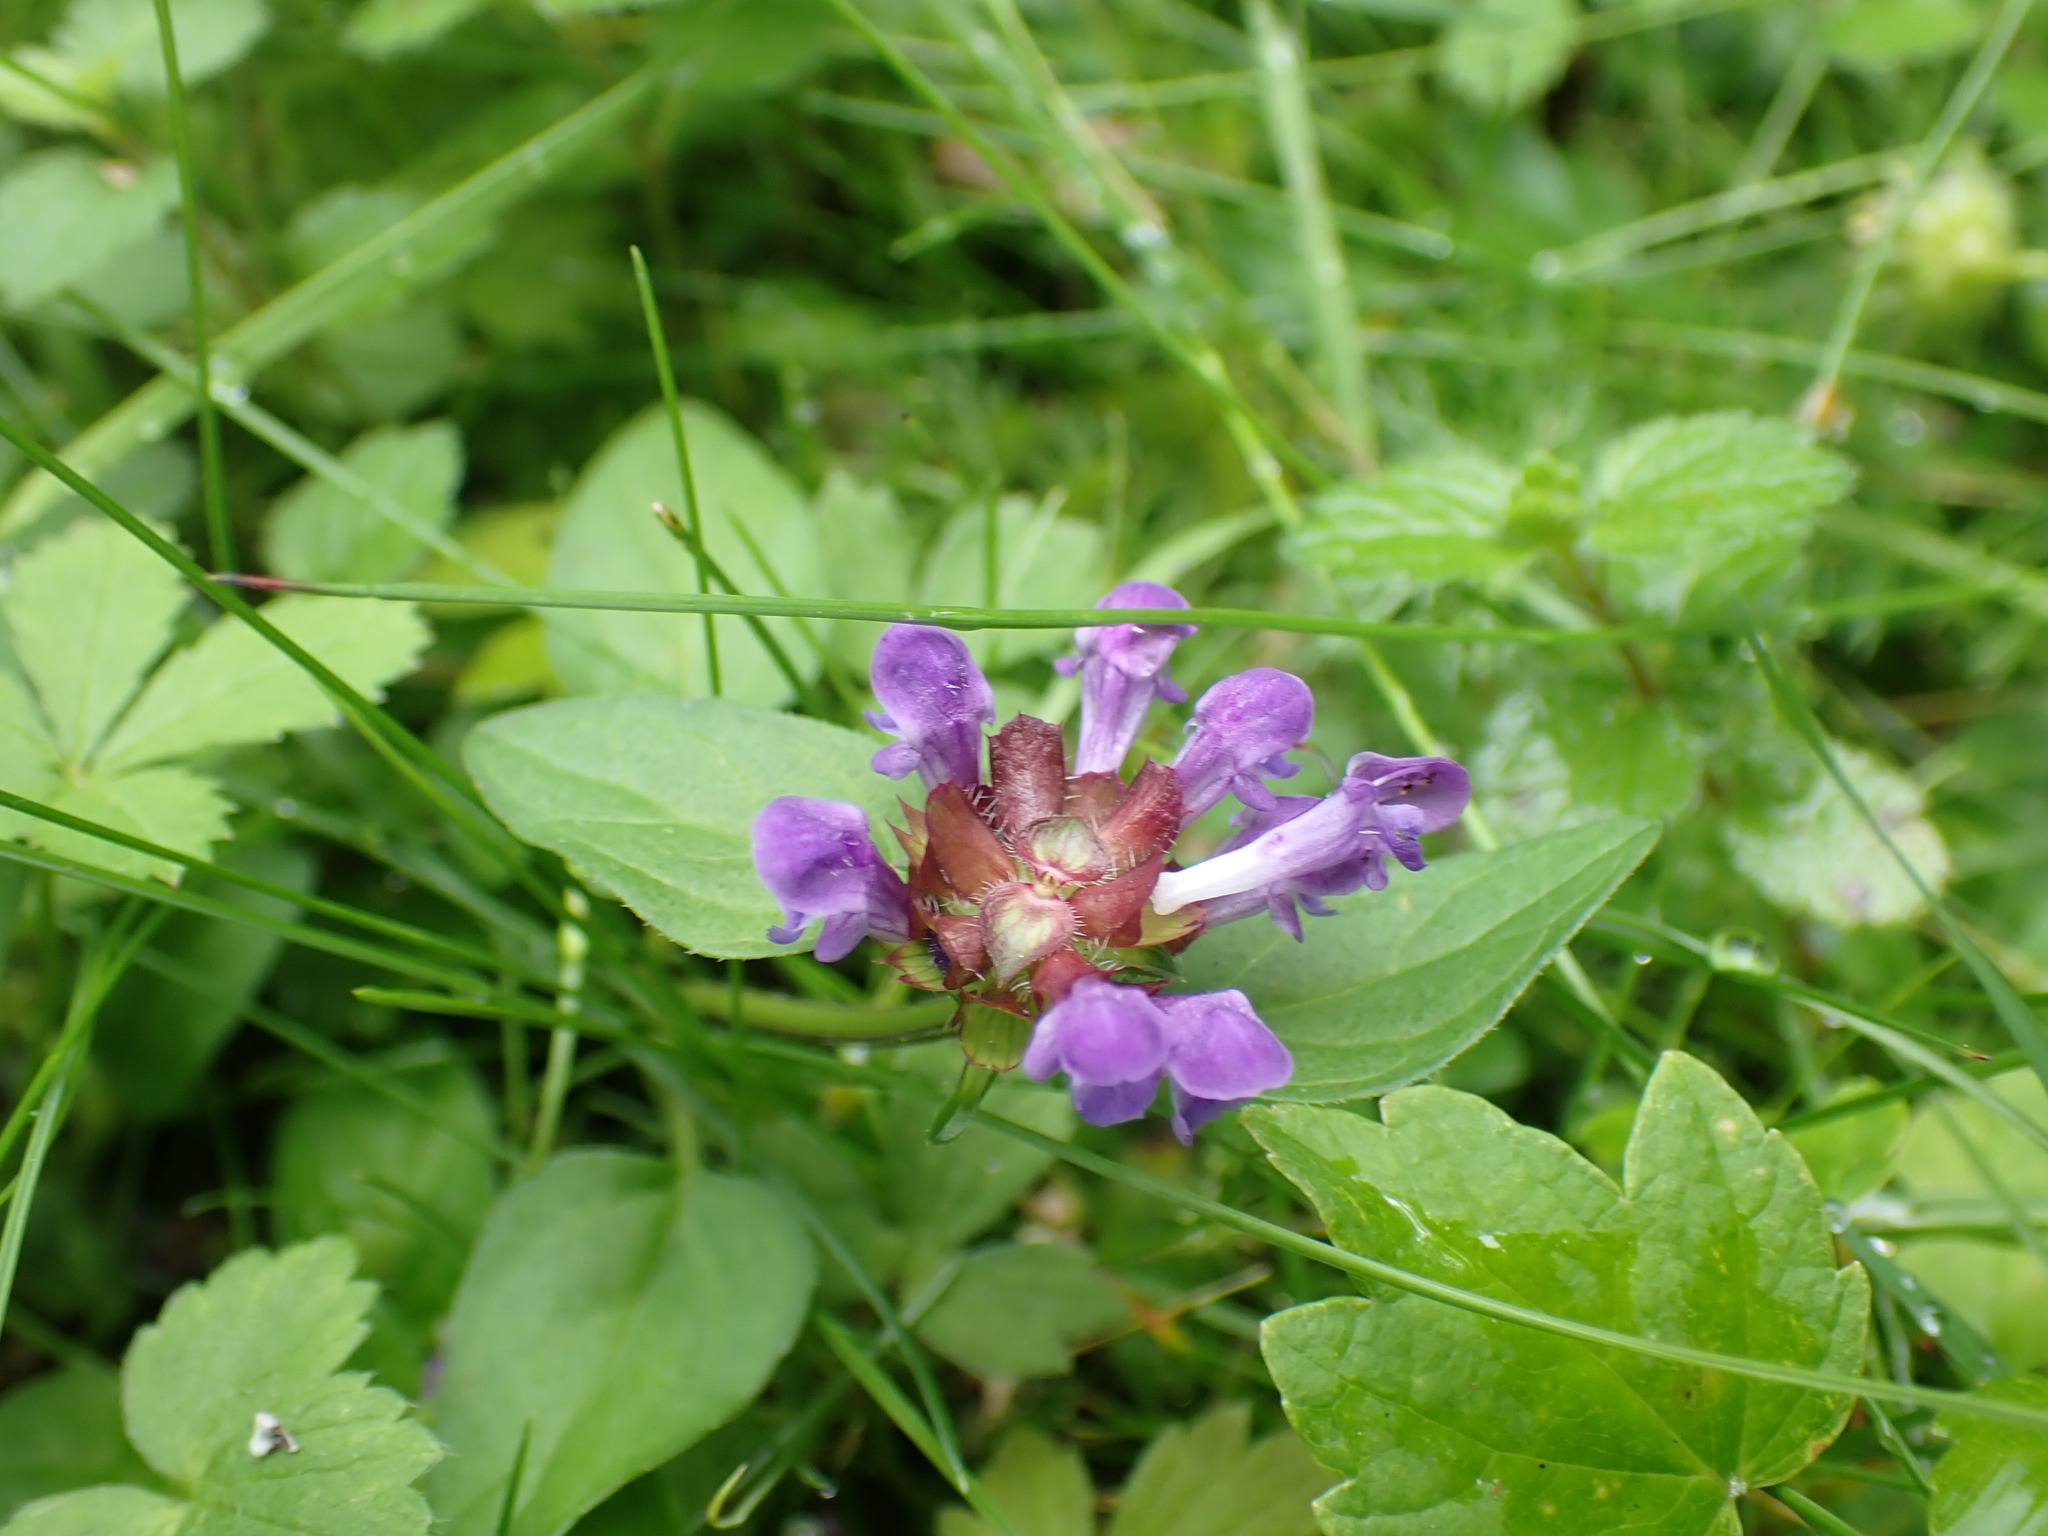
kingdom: Plantae
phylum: Tracheophyta
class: Magnoliopsida
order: Lamiales
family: Lamiaceae
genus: Prunella
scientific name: Prunella vulgaris
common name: Heal-all
